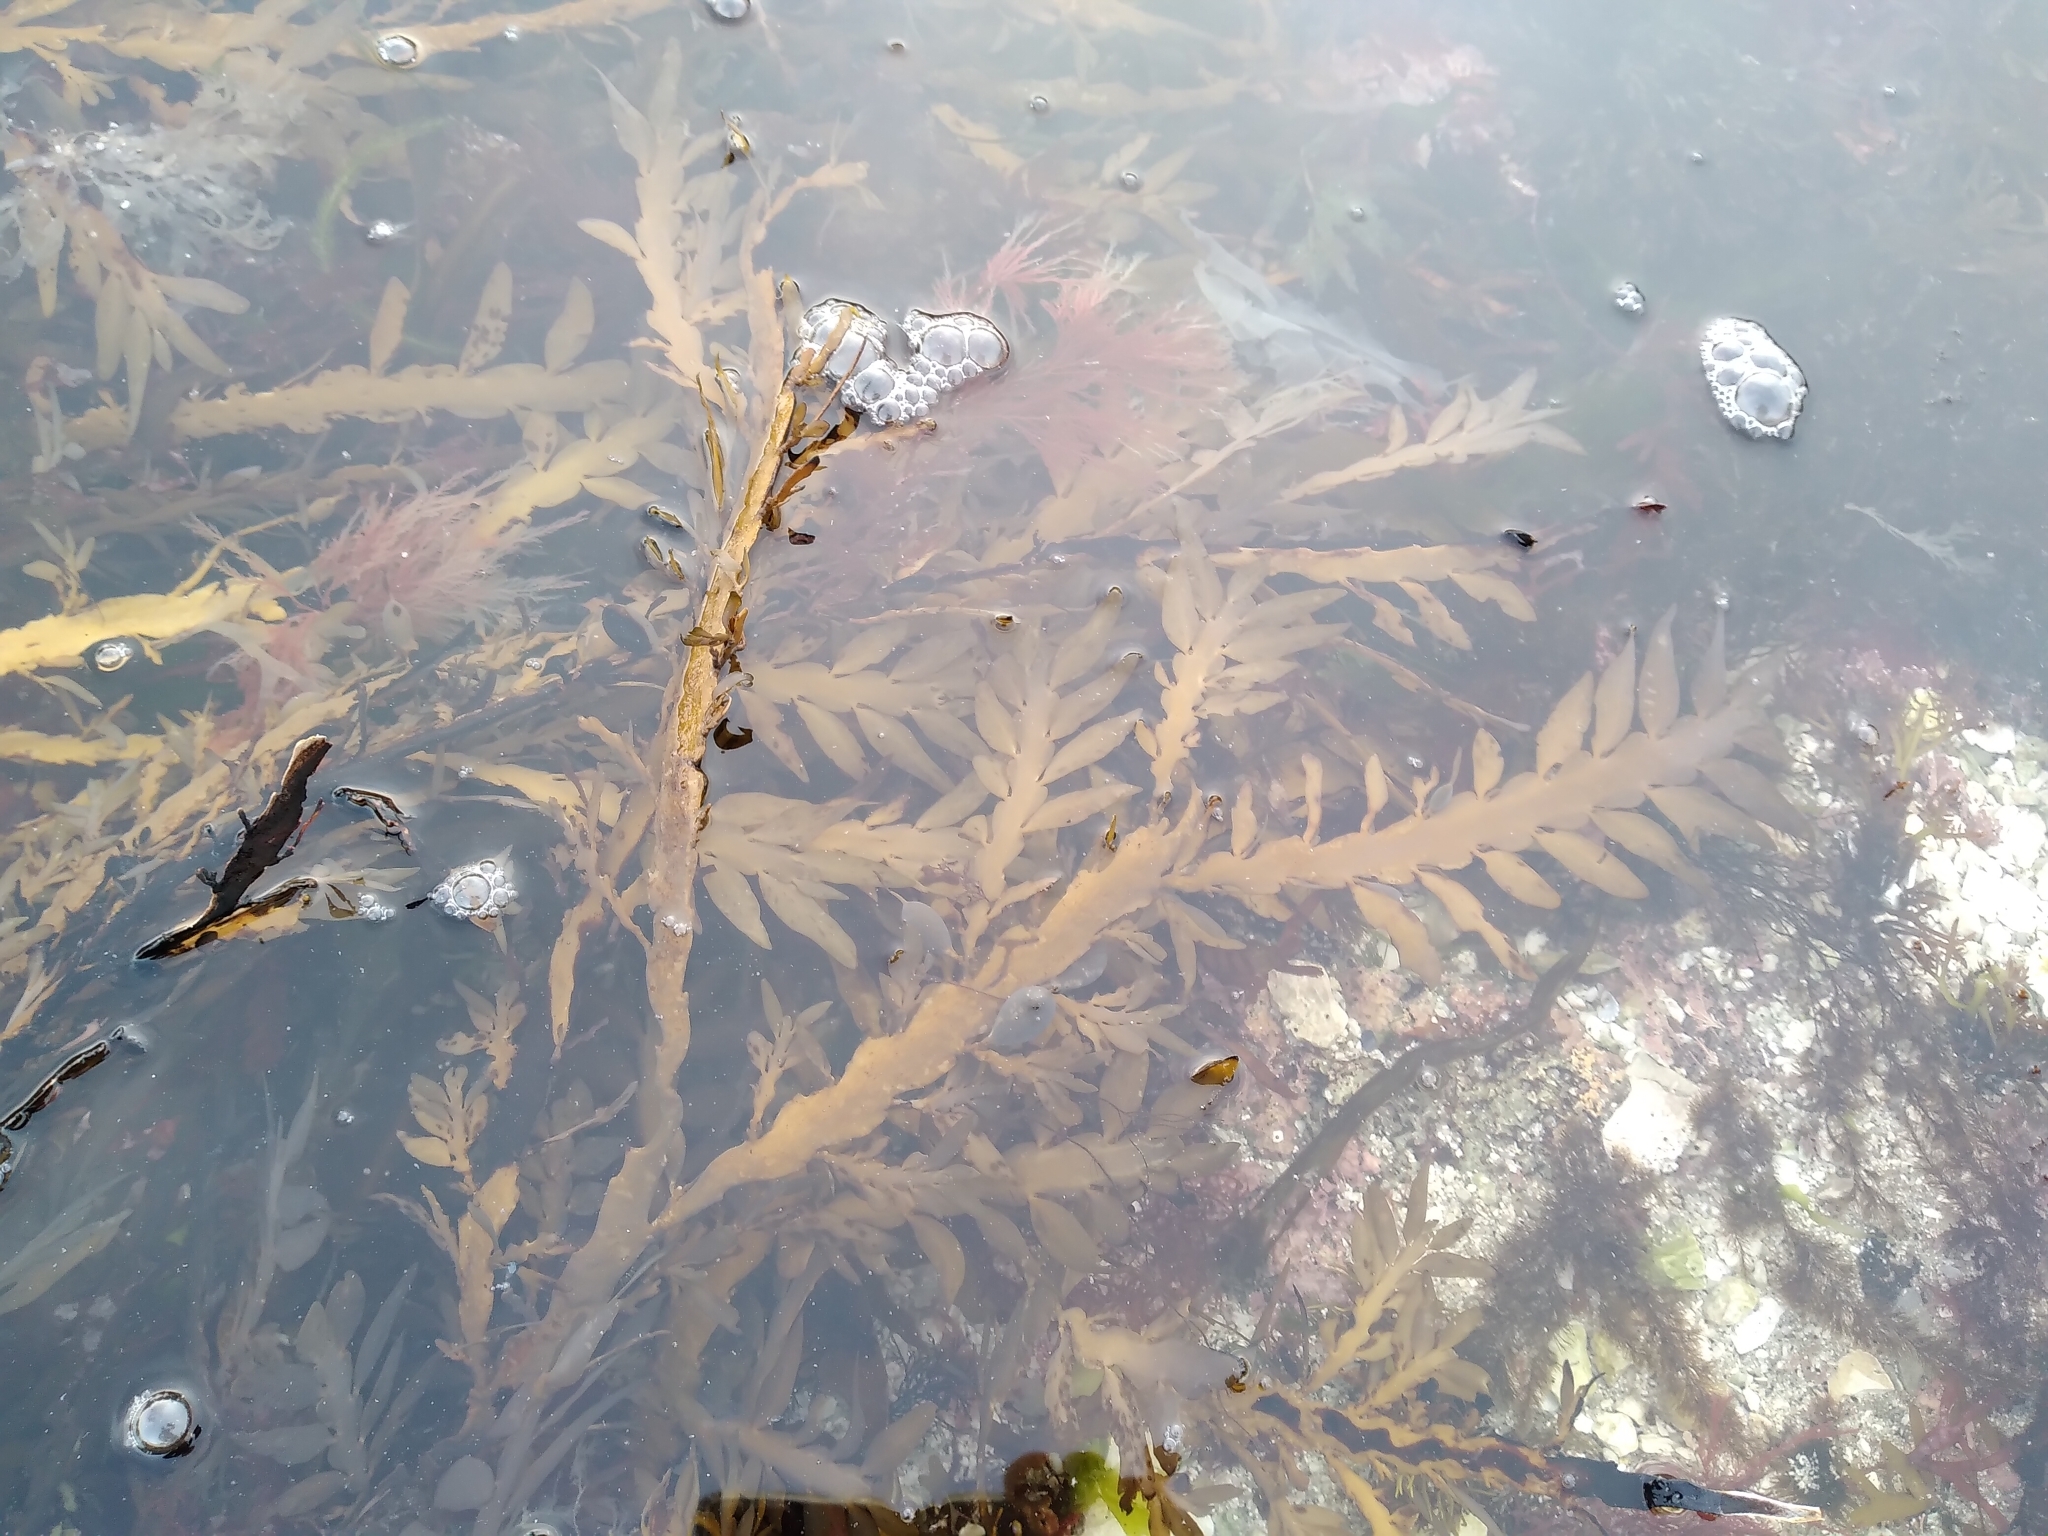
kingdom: Chromista
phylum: Ochrophyta
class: Phaeophyceae
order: Fucales
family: Sargassaceae
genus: Carpophyllum
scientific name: Carpophyllum maschalocarpum
